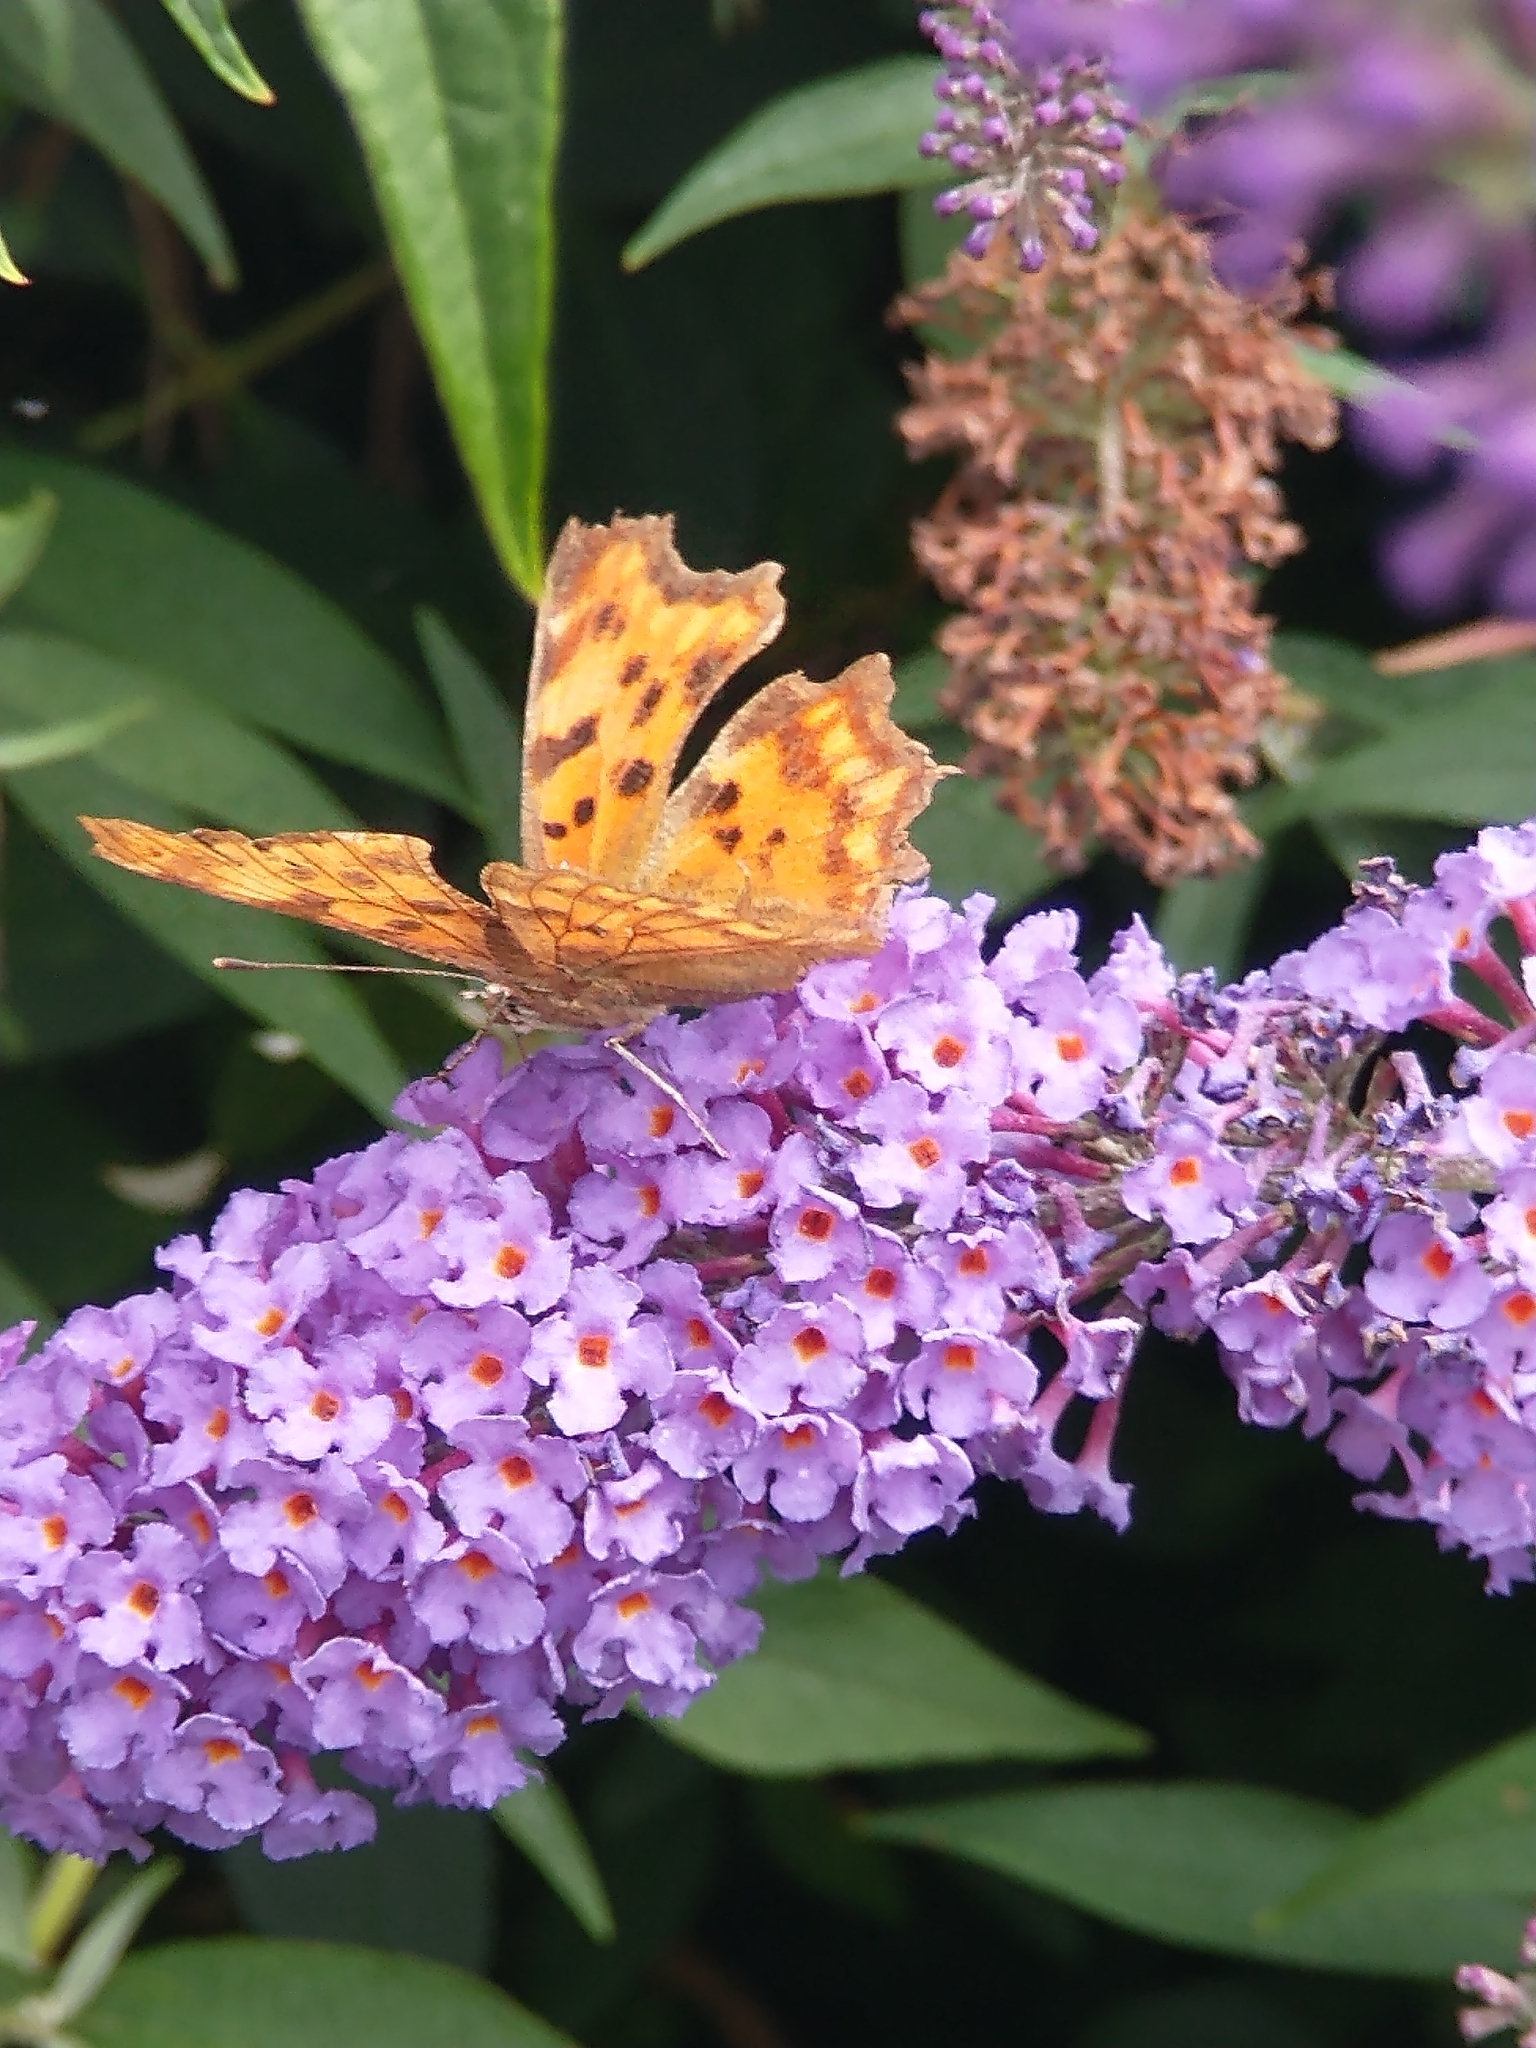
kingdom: Animalia
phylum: Arthropoda
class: Insecta
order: Lepidoptera
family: Nymphalidae
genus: Polygonia
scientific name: Polygonia c-album
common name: Comma
